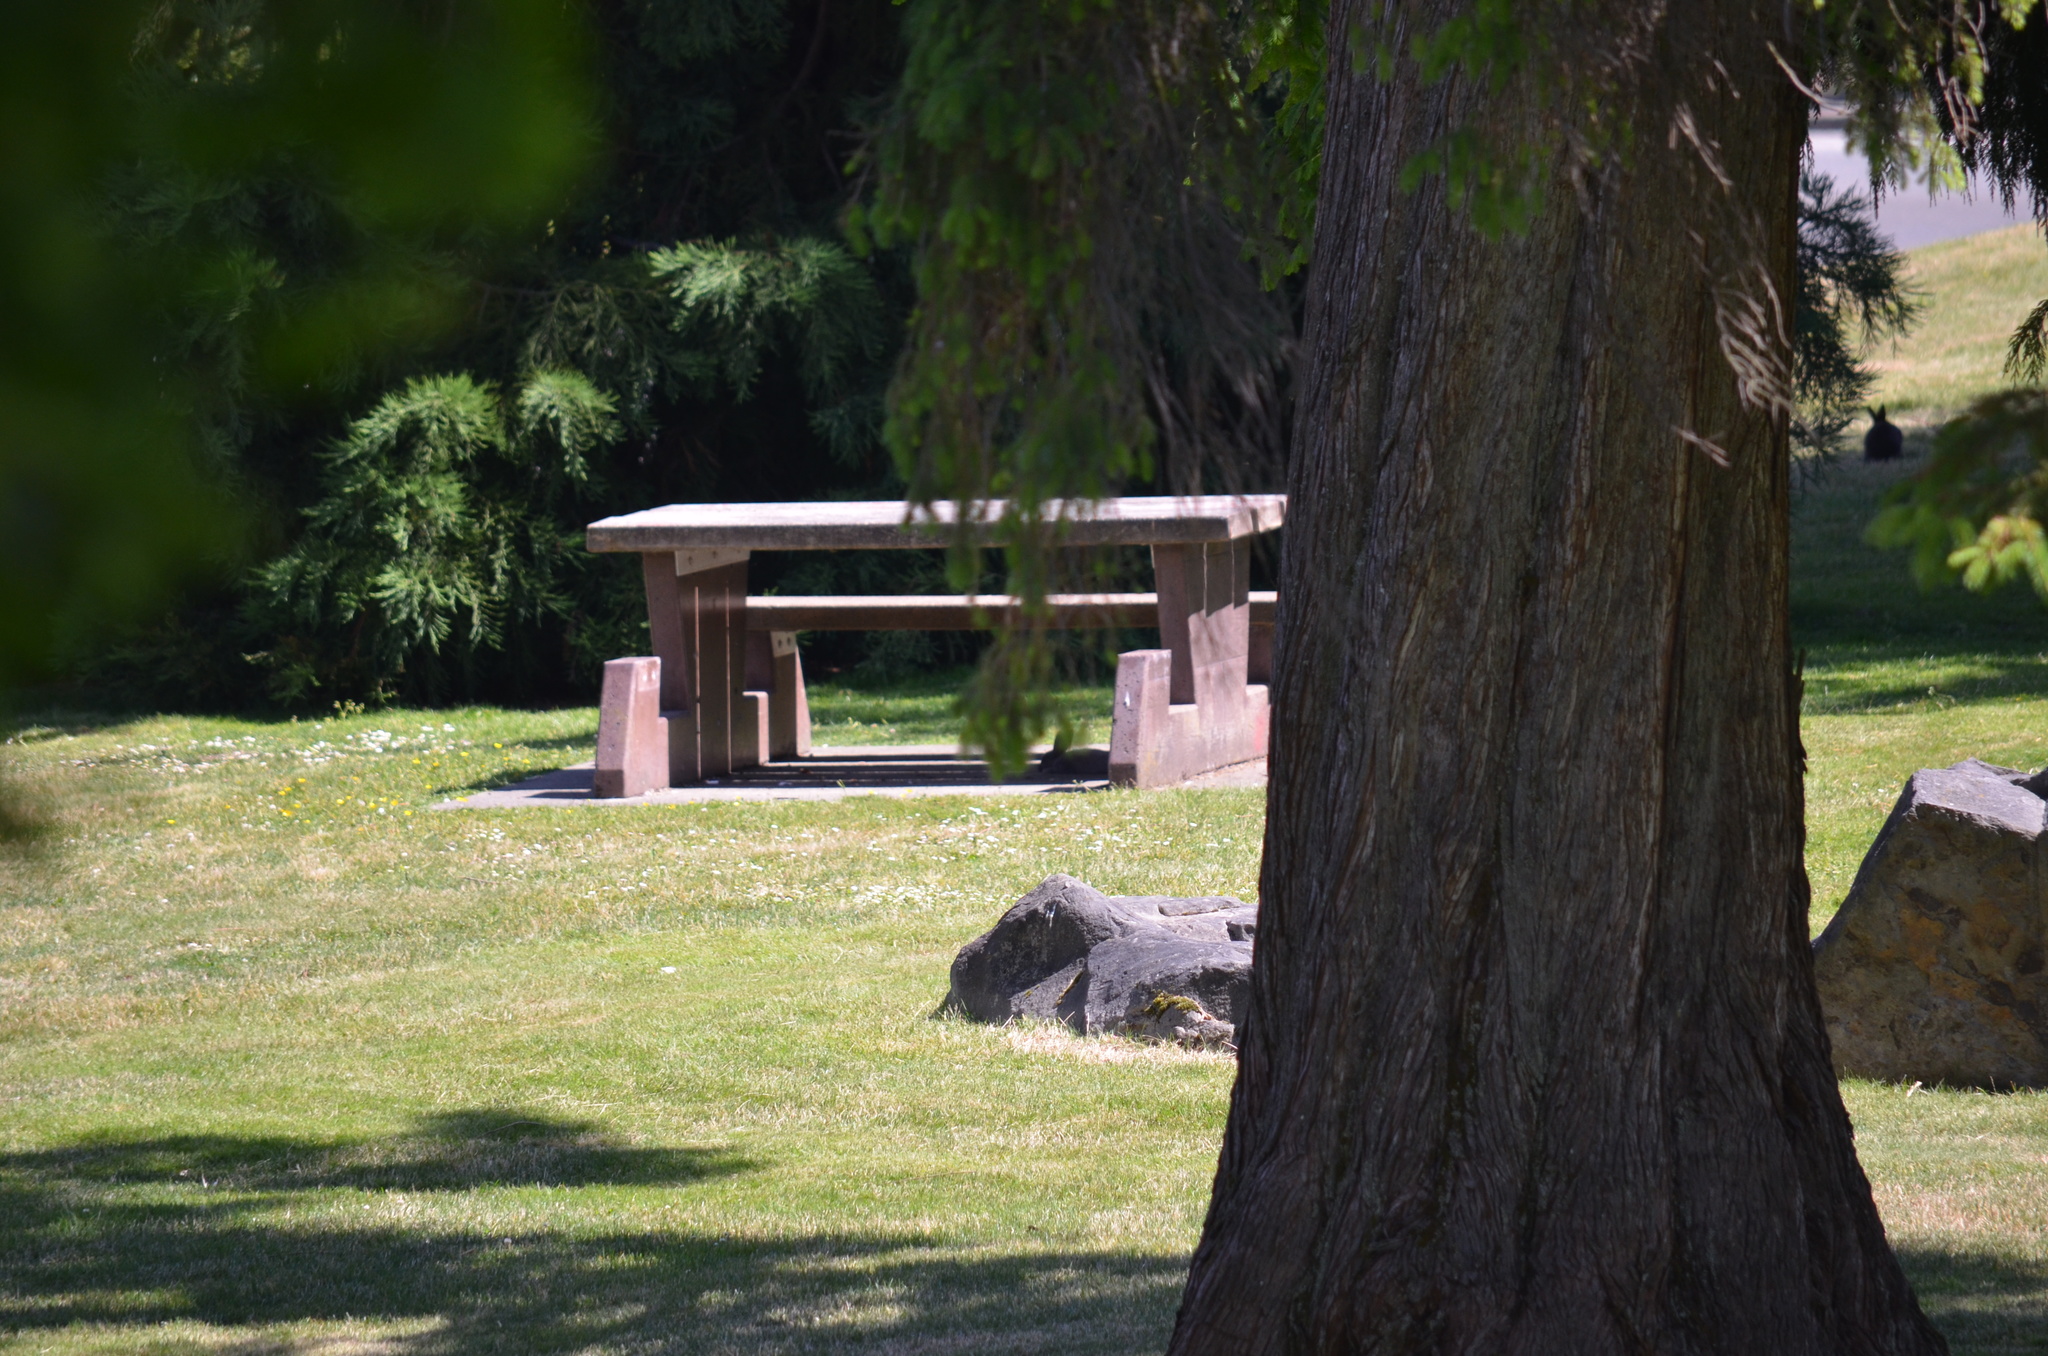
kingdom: Animalia
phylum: Chordata
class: Mammalia
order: Lagomorpha
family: Leporidae
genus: Oryctolagus
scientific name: Oryctolagus cuniculus
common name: European rabbit
